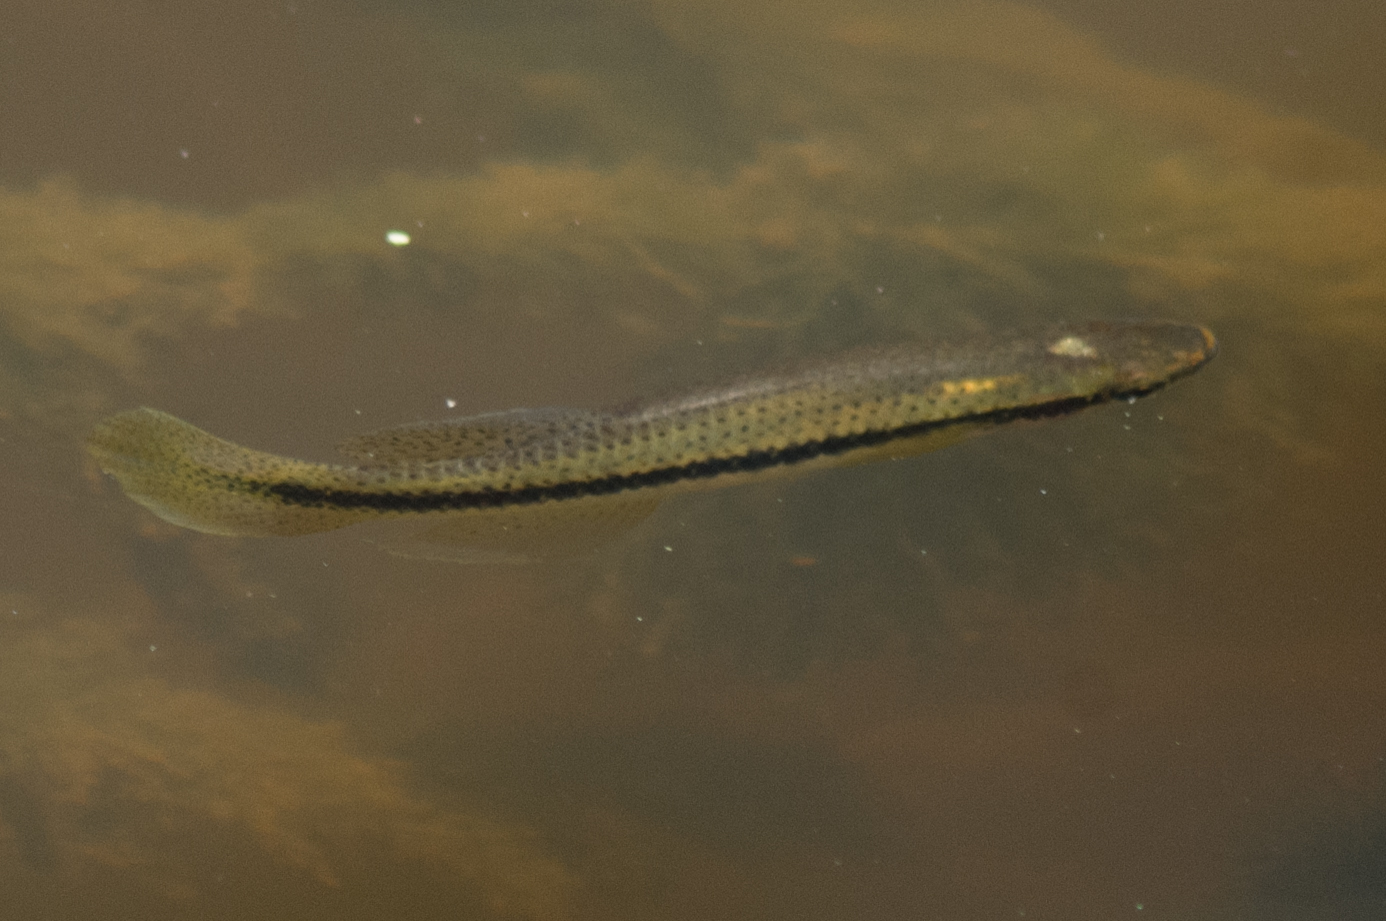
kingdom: Animalia
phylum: Chordata
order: Cyprinodontiformes
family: Fundulidae
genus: Fundulus
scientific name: Fundulus olivaceus
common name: Blackspotted topminnow
